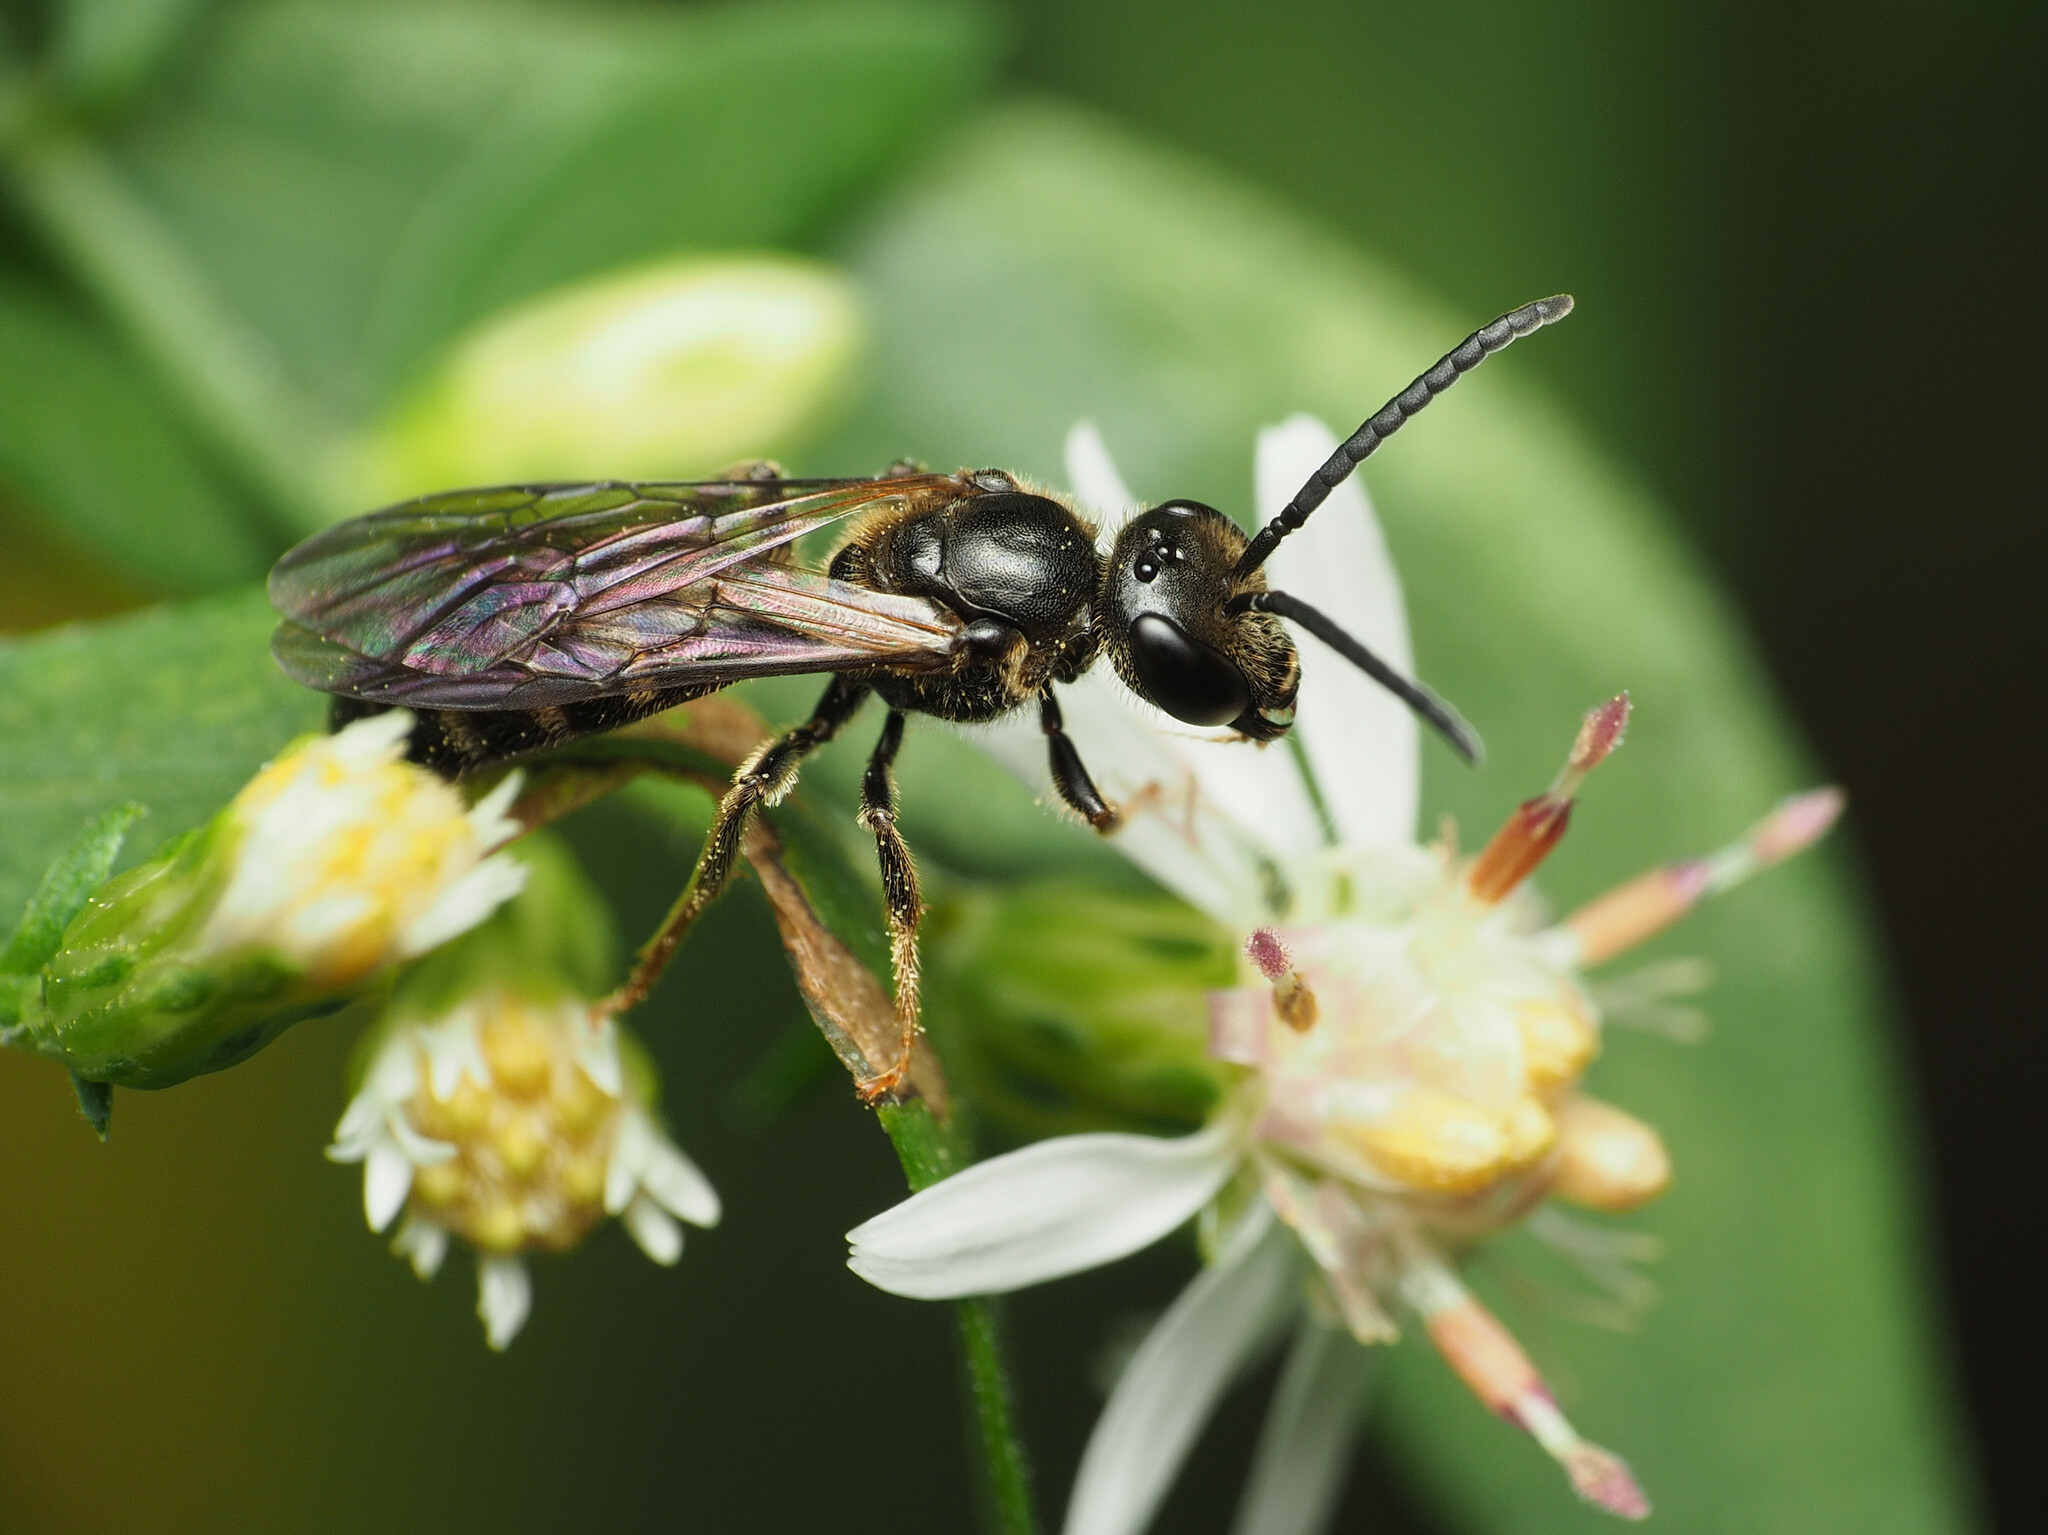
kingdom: Animalia
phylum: Arthropoda
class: Insecta
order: Hymenoptera
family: Halictidae
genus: Lasioglossum
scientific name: Lasioglossum fuscipenne
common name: Brown-winged sweat bee
